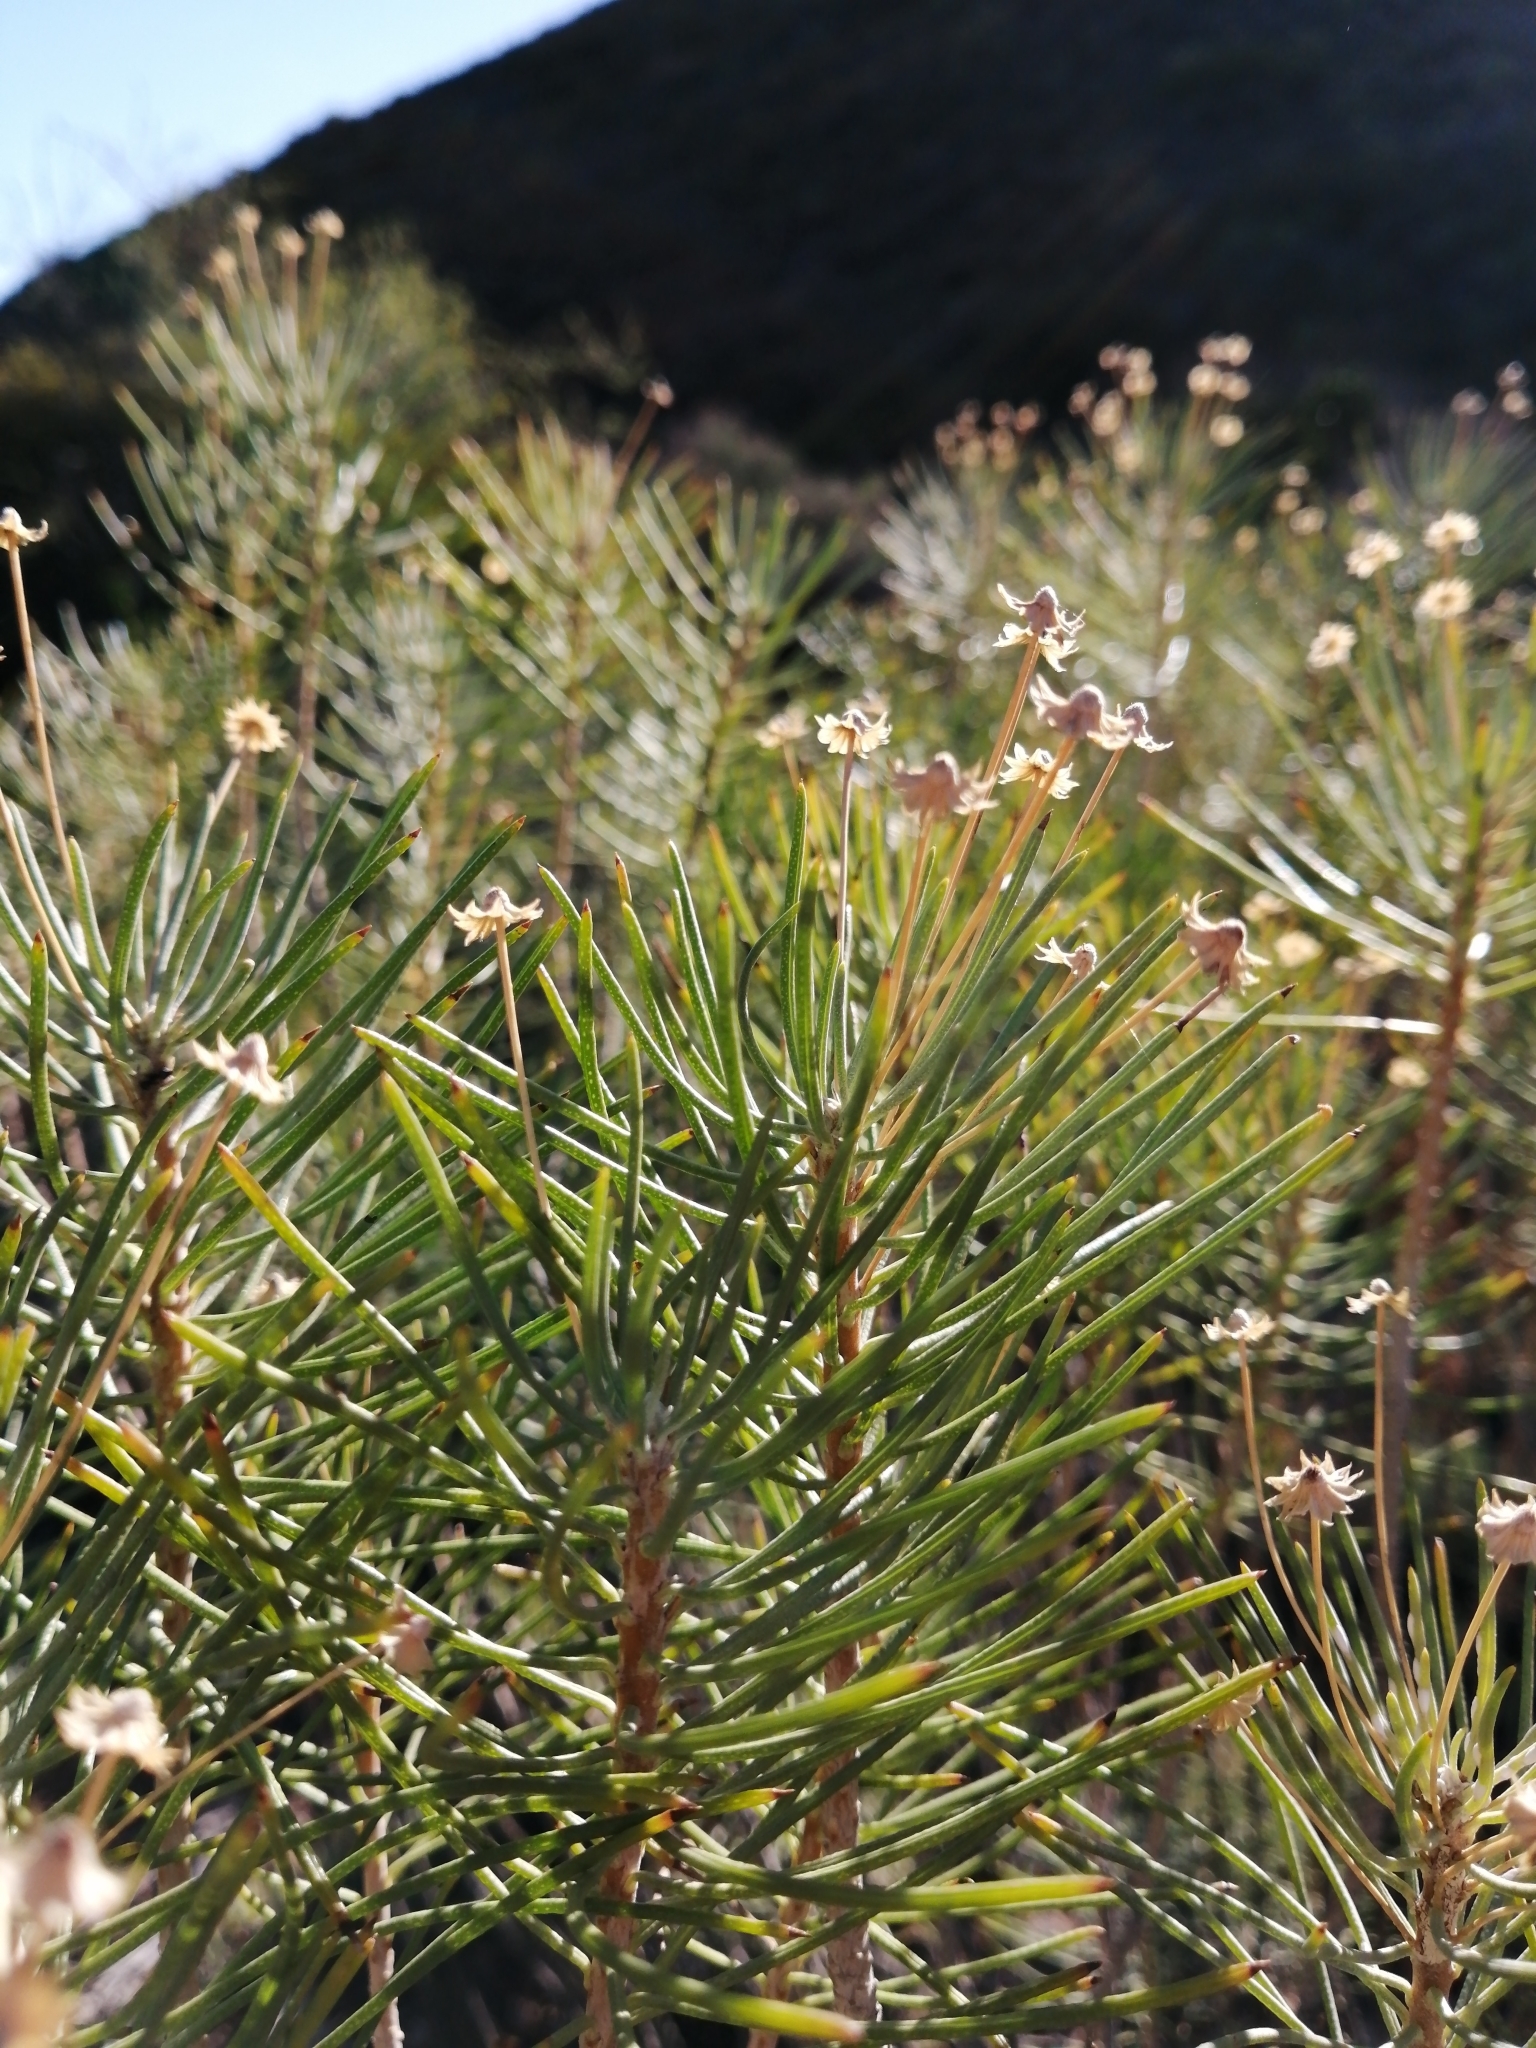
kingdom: Plantae
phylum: Tracheophyta
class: Magnoliopsida
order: Asterales
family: Asteraceae
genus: Euryops
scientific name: Euryops tenuissimus
